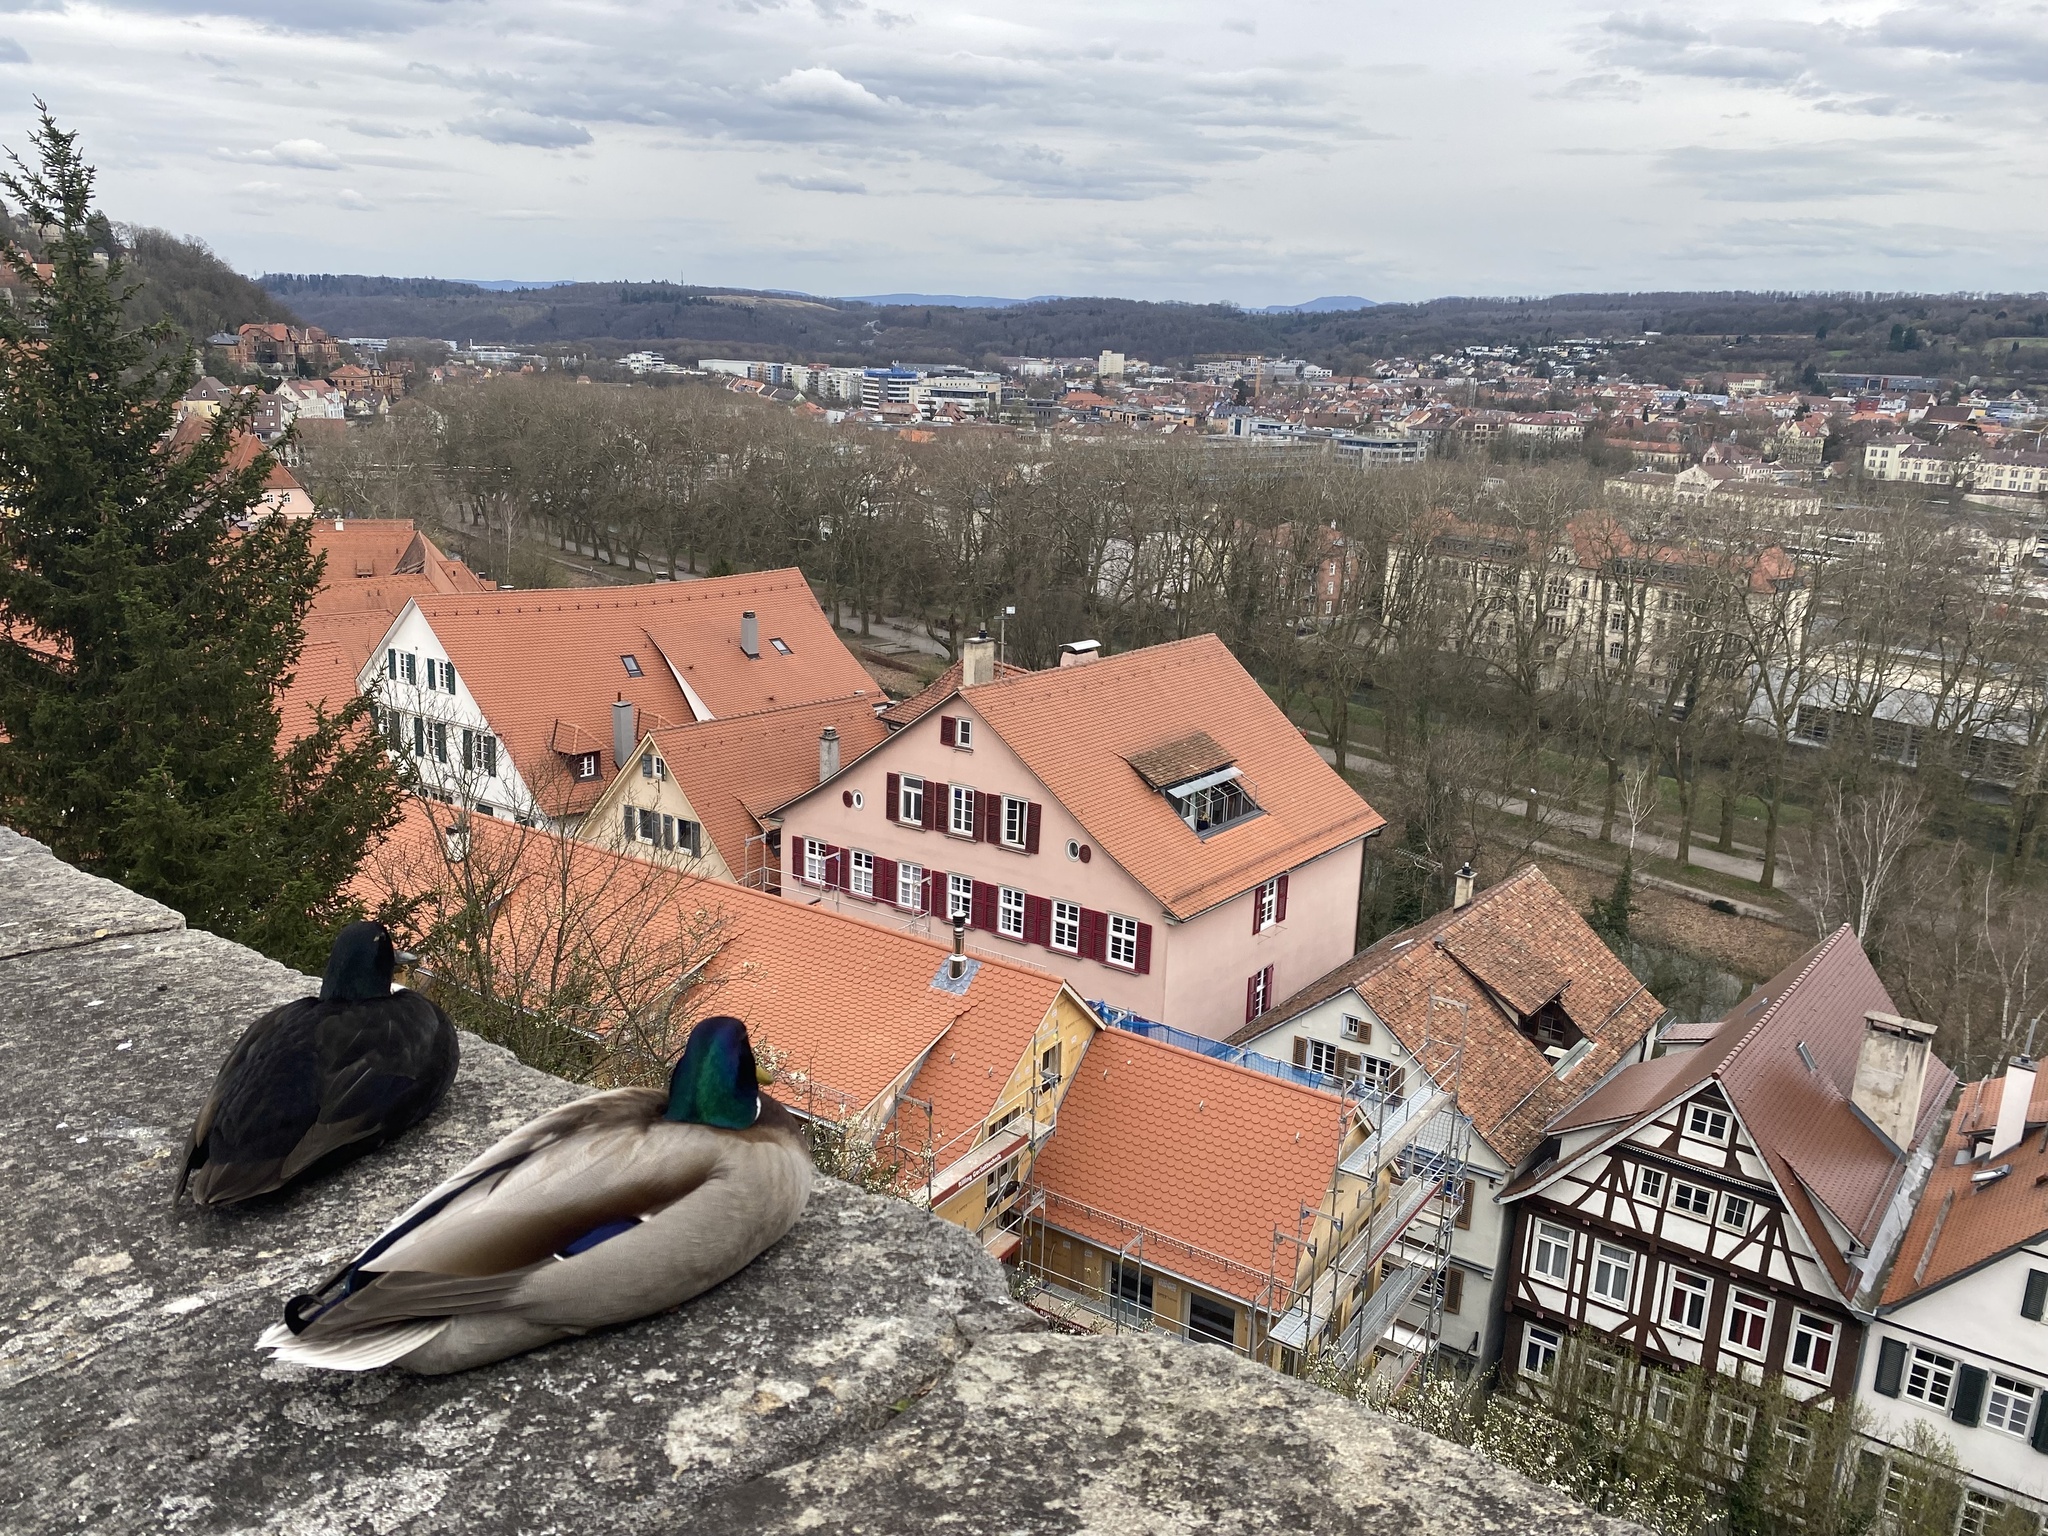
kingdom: Animalia
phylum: Chordata
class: Aves
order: Anseriformes
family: Anatidae
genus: Anas
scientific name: Anas platyrhynchos
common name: Mallard
